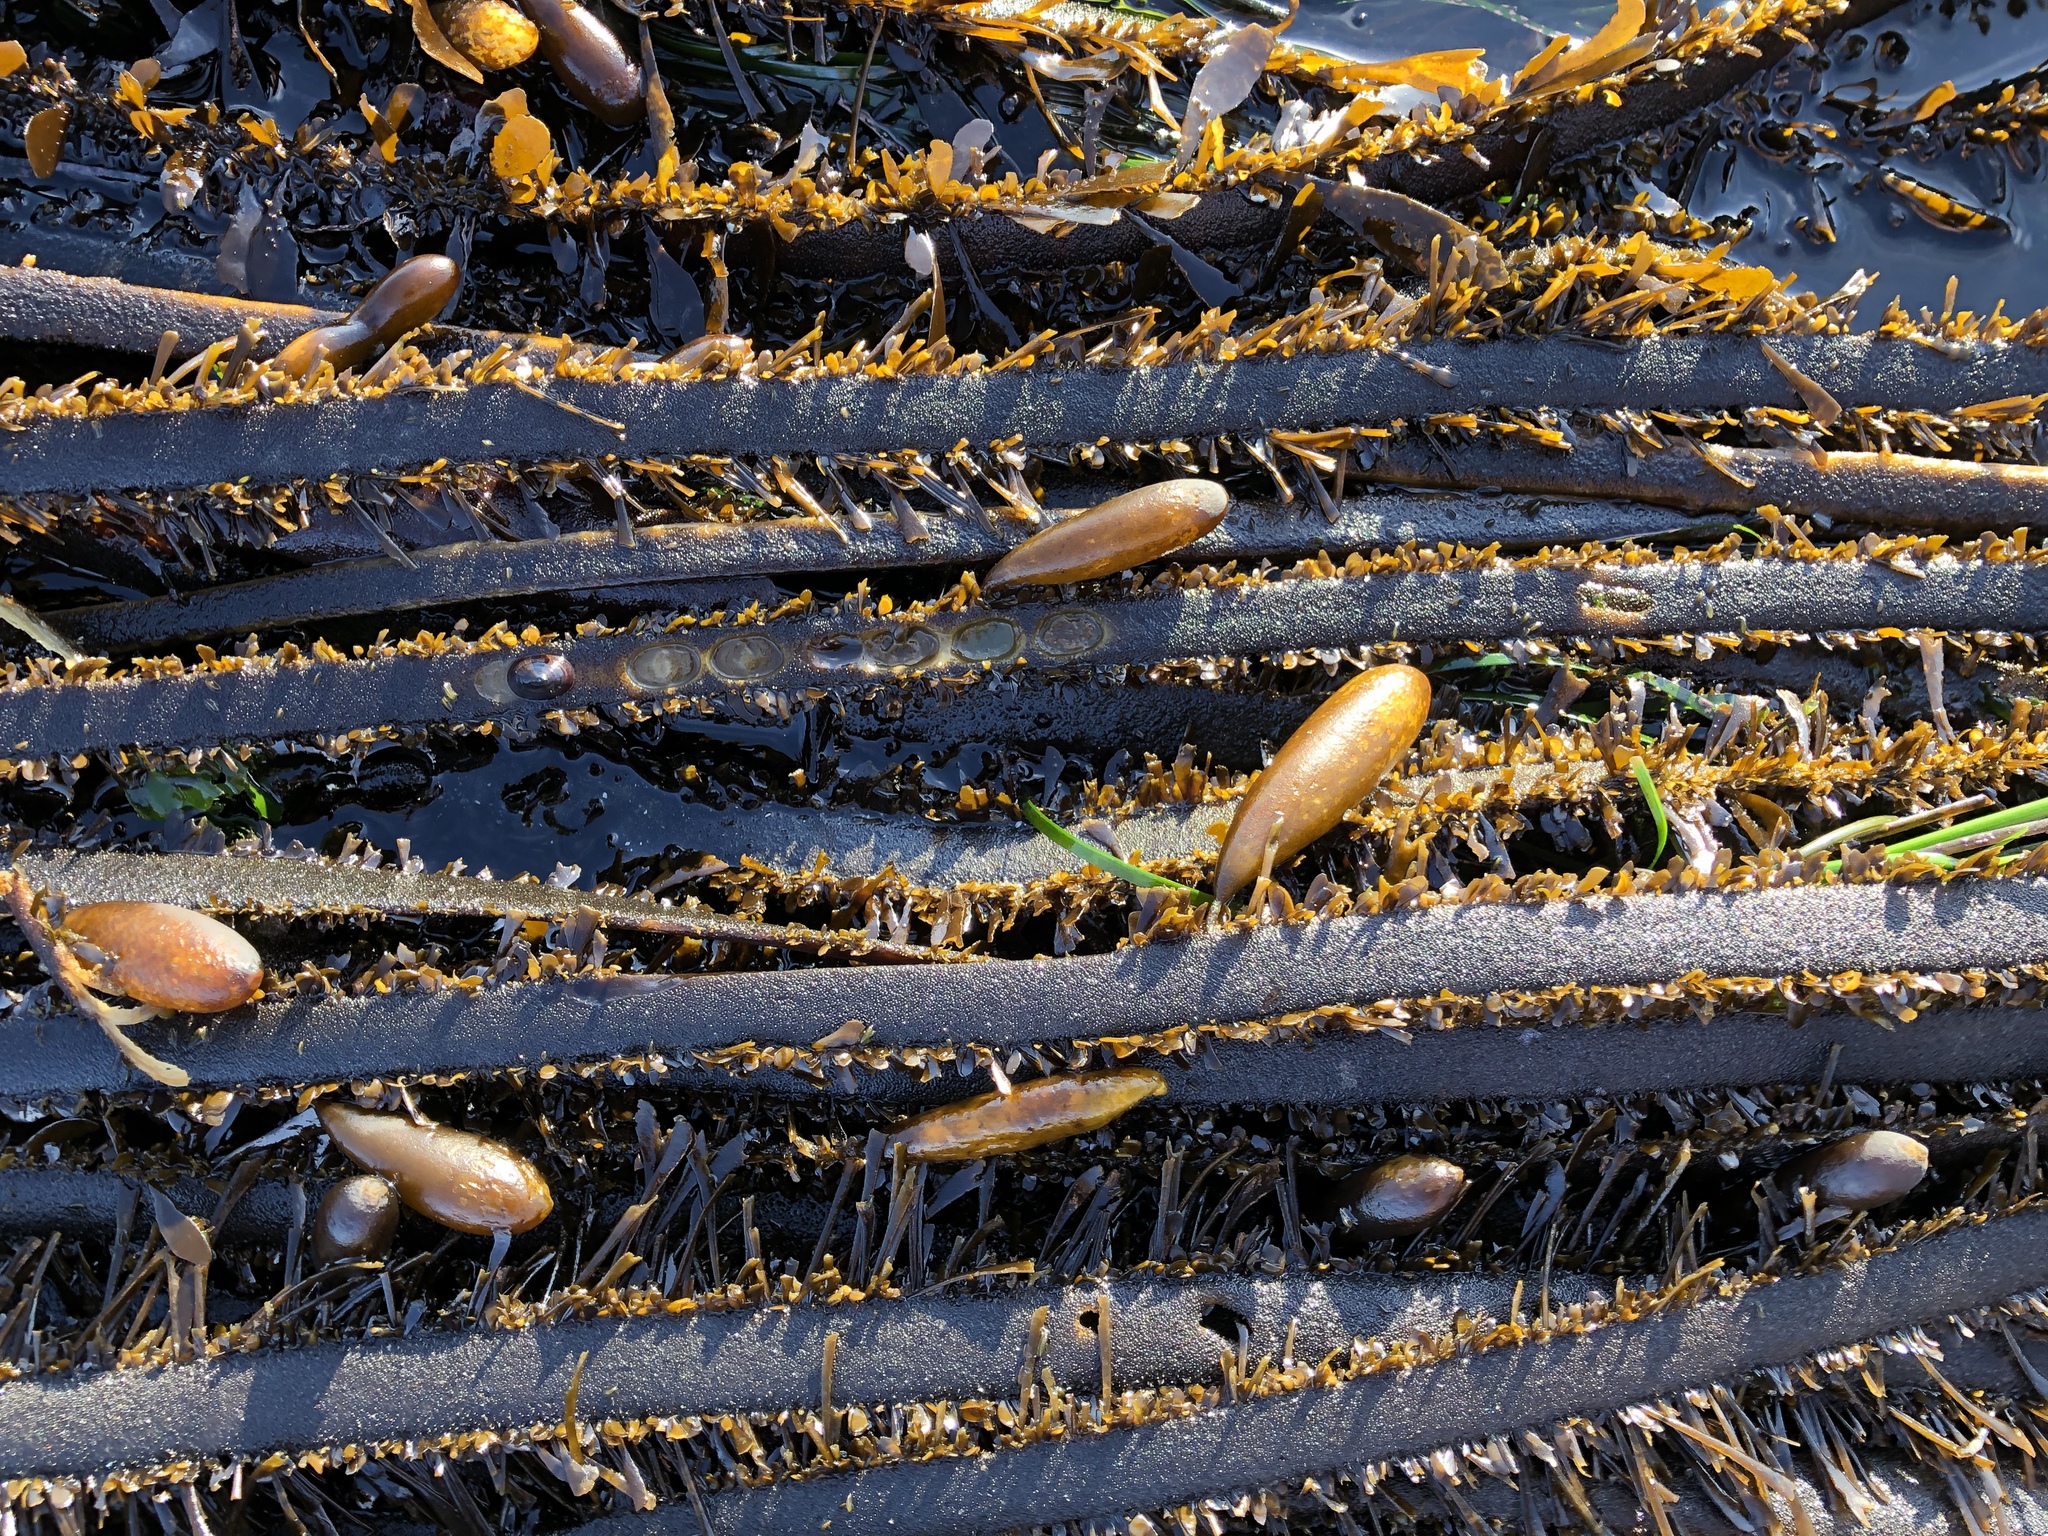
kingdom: Chromista
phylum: Ochrophyta
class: Phaeophyceae
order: Laminariales
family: Lessoniaceae
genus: Egregia
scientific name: Egregia menziesii
